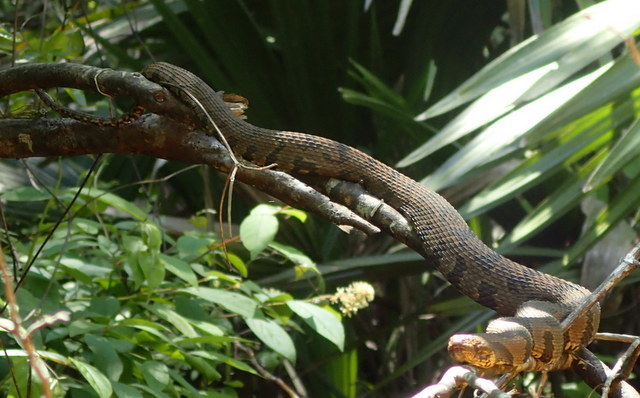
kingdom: Animalia
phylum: Chordata
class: Squamata
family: Colubridae
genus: Nerodia
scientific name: Nerodia taxispilota
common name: Brown water snake
